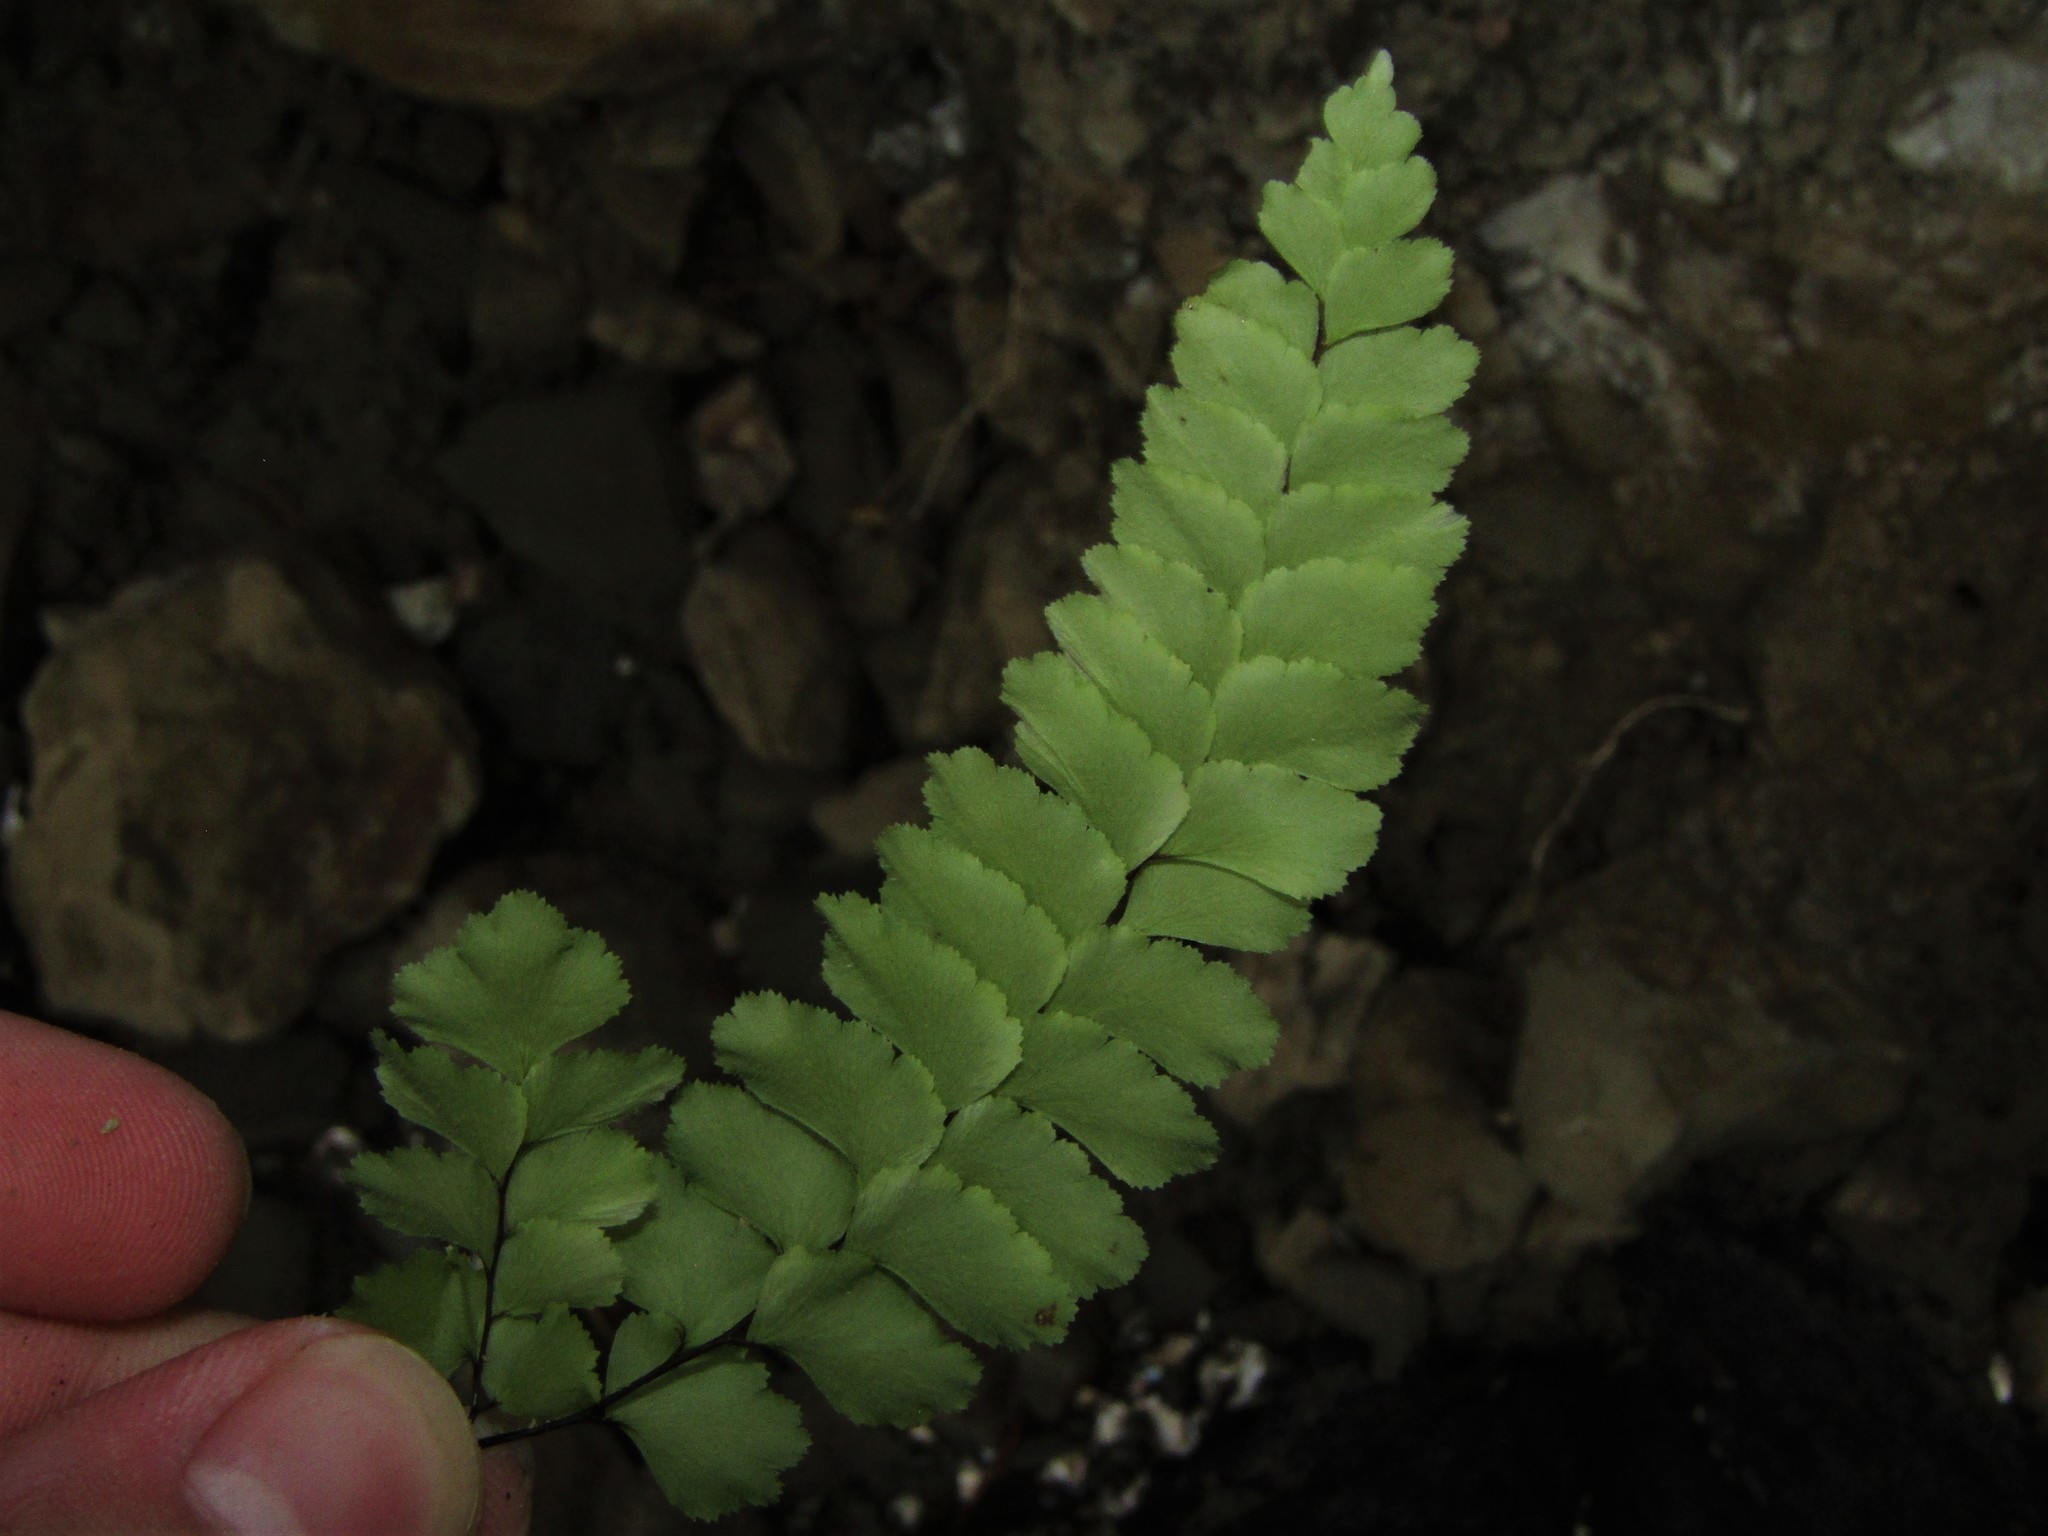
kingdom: Plantae
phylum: Tracheophyta
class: Polypodiopsida
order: Polypodiales
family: Pteridaceae
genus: Adiantum
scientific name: Adiantum cunninghamii
